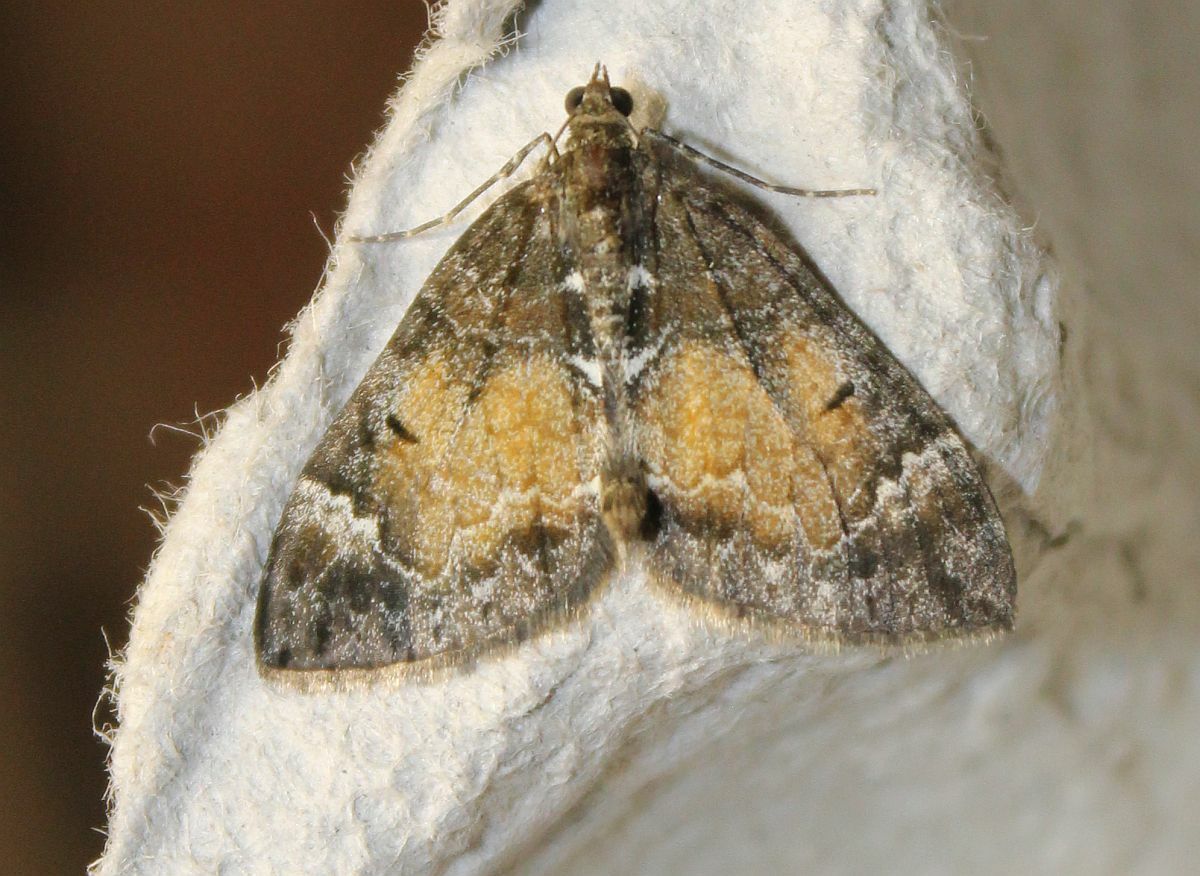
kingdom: Animalia
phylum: Arthropoda
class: Insecta
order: Lepidoptera
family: Geometridae
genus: Dysstroma
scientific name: Dysstroma truncata
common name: Common marbled carpet
